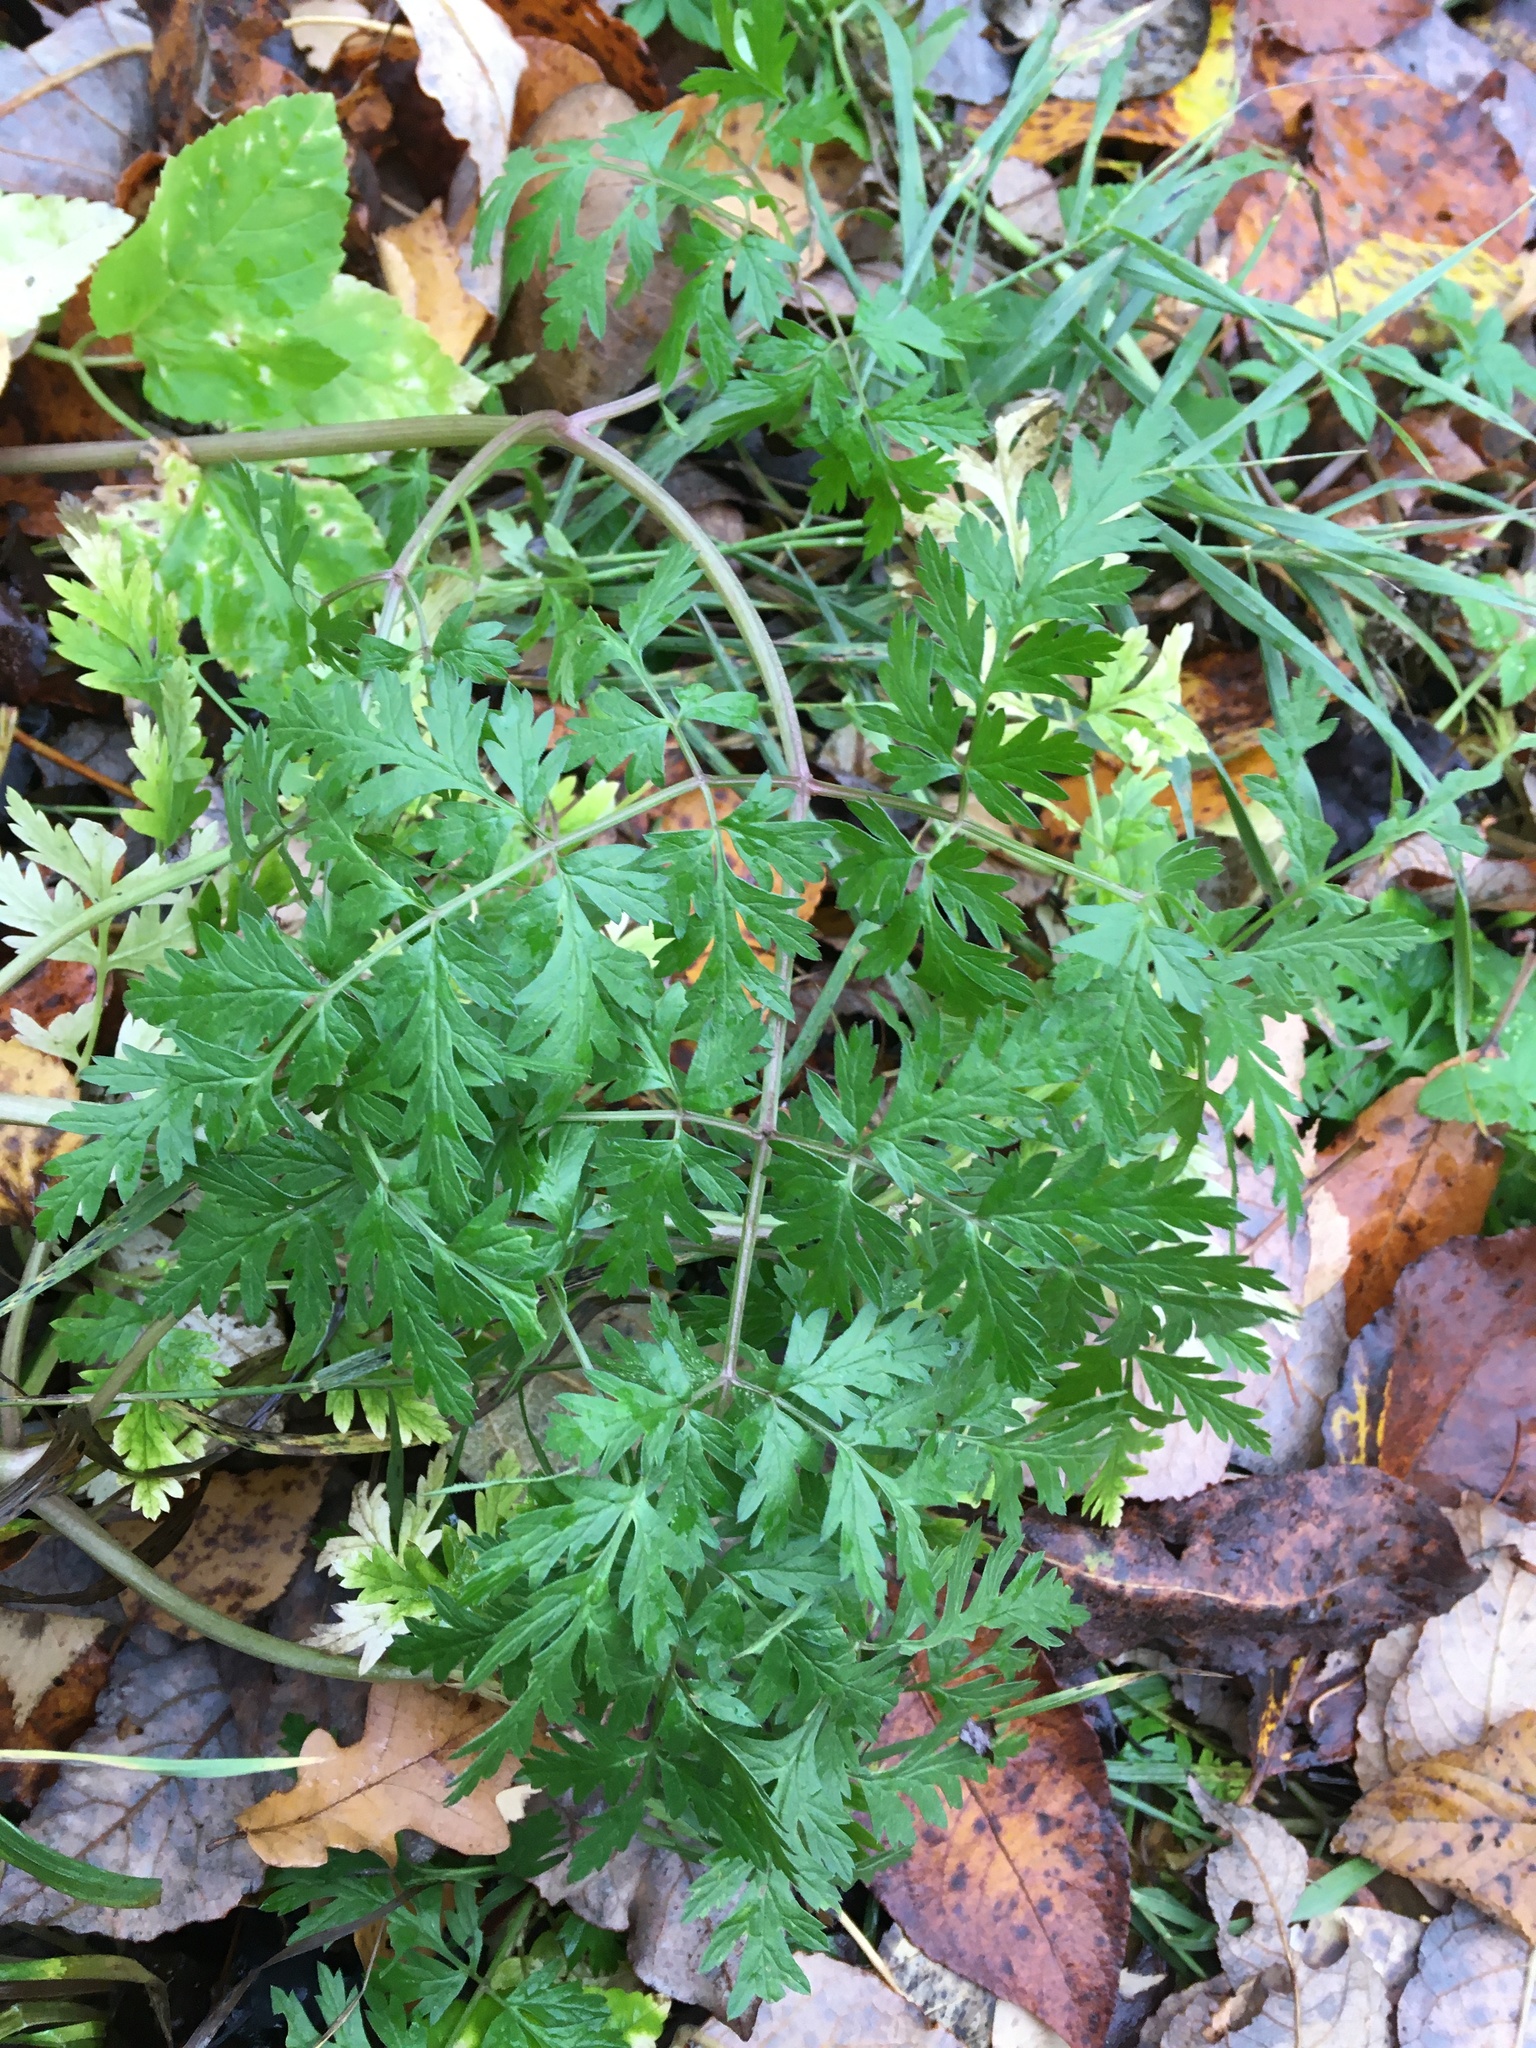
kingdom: Plantae
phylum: Tracheophyta
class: Magnoliopsida
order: Apiales
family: Apiaceae
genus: Anthriscus
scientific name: Anthriscus sylvestris
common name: Cow parsley
